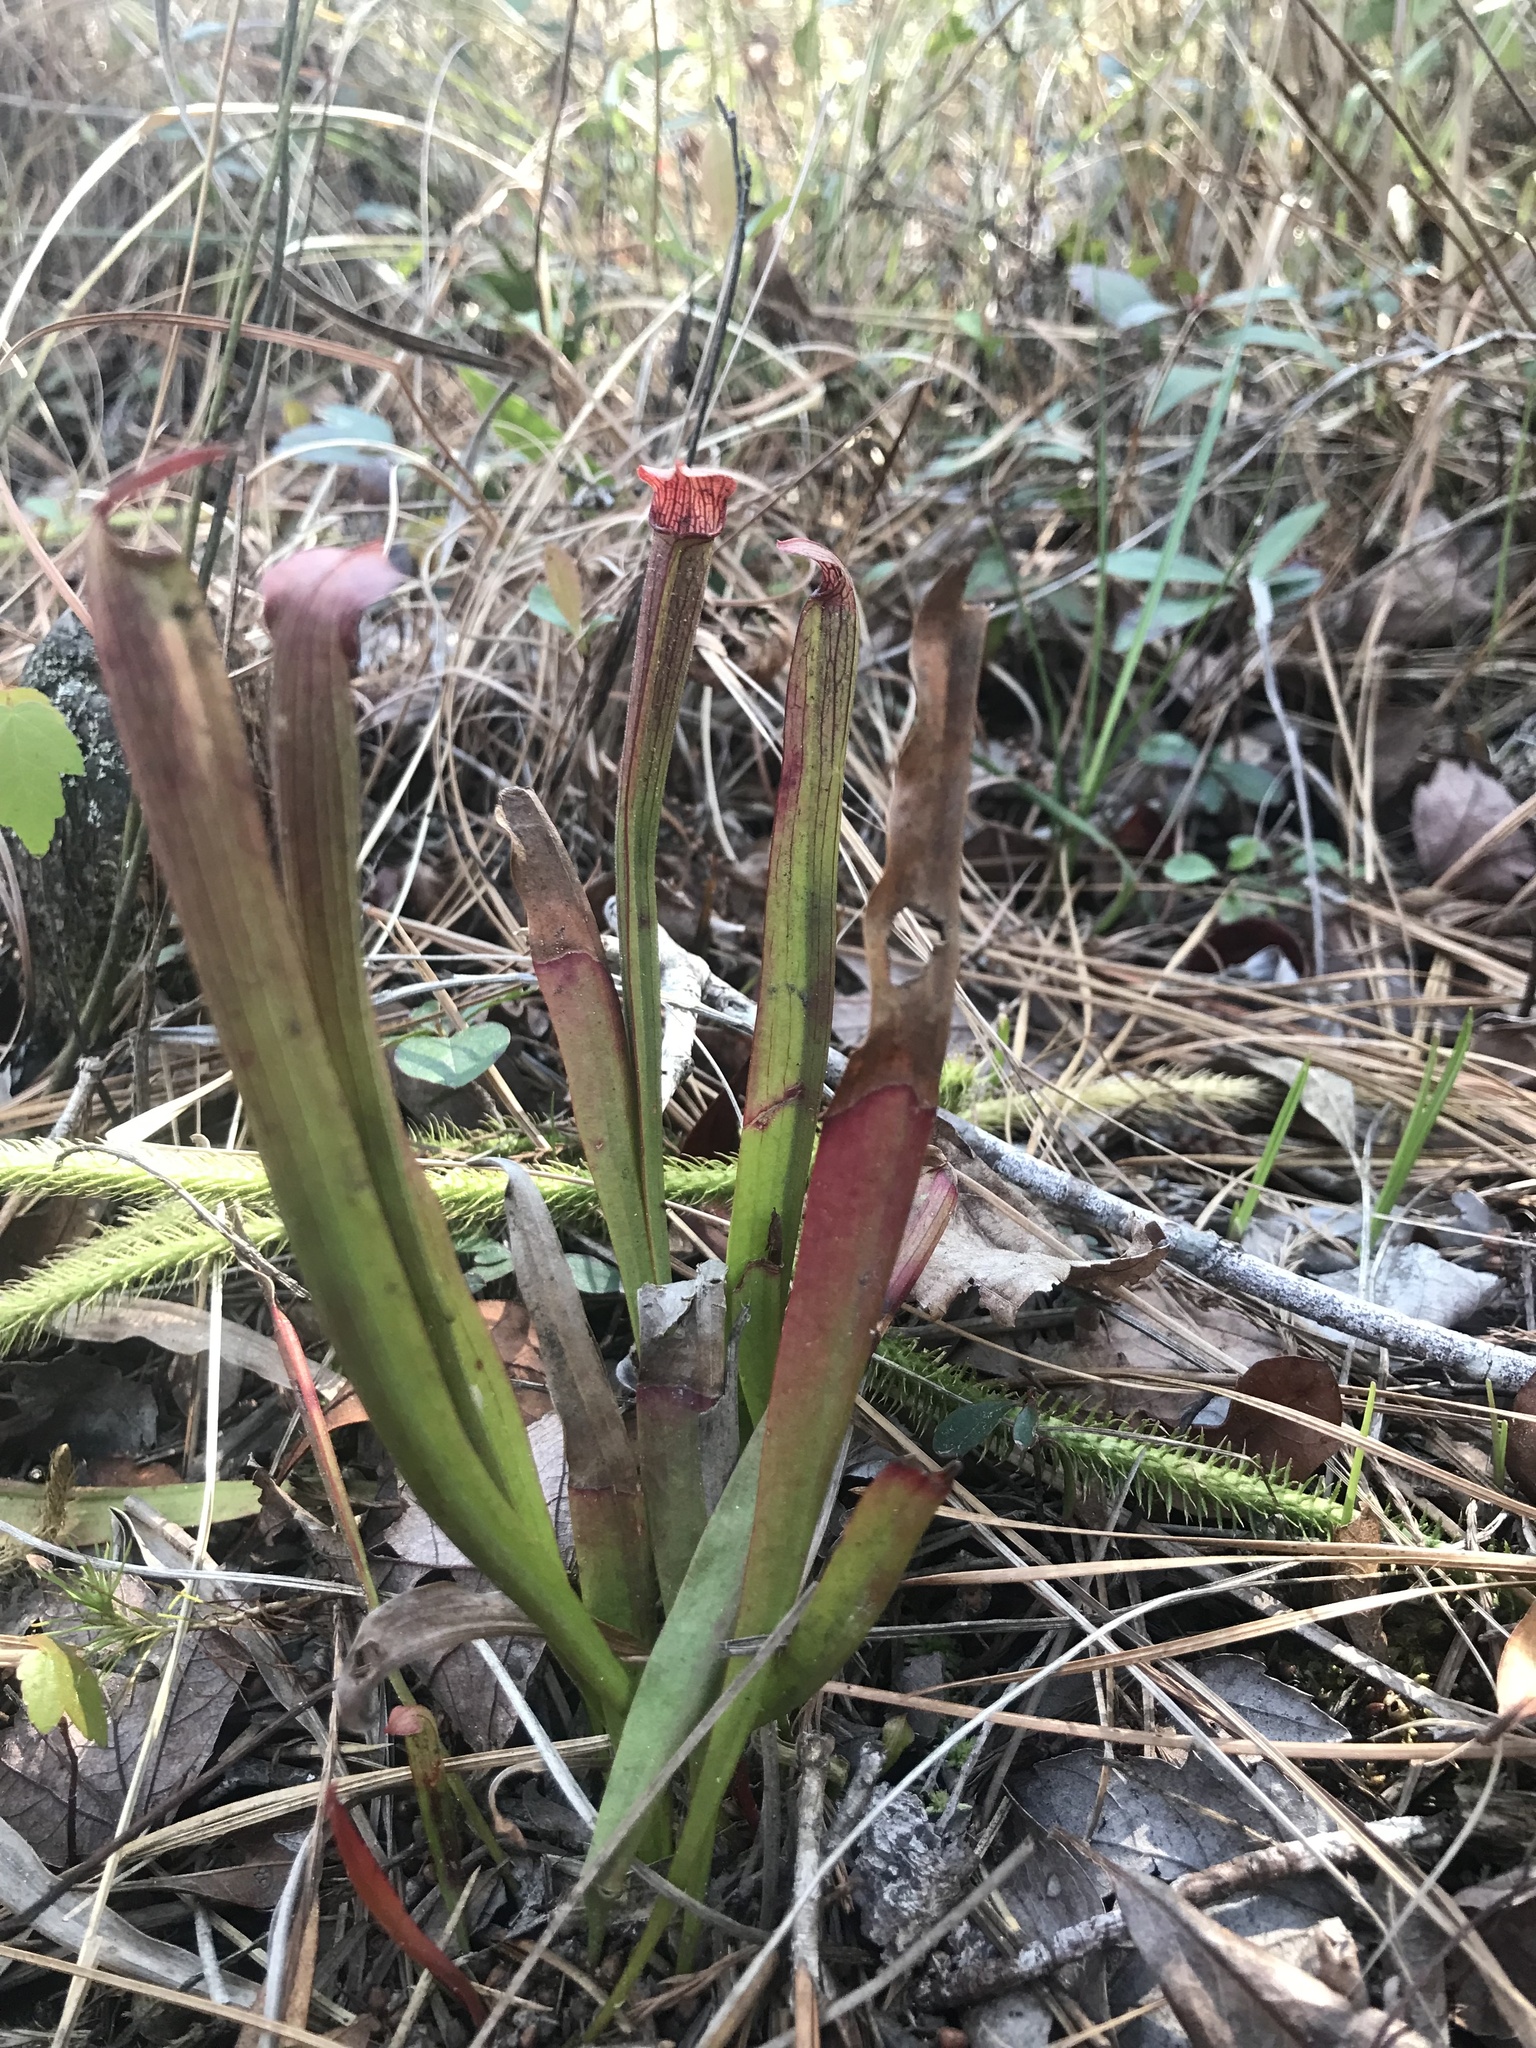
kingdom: Plantae
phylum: Tracheophyta
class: Magnoliopsida
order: Ericales
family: Sarraceniaceae
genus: Sarracenia
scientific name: Sarracenia rubra
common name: Sweet pitcherplant
